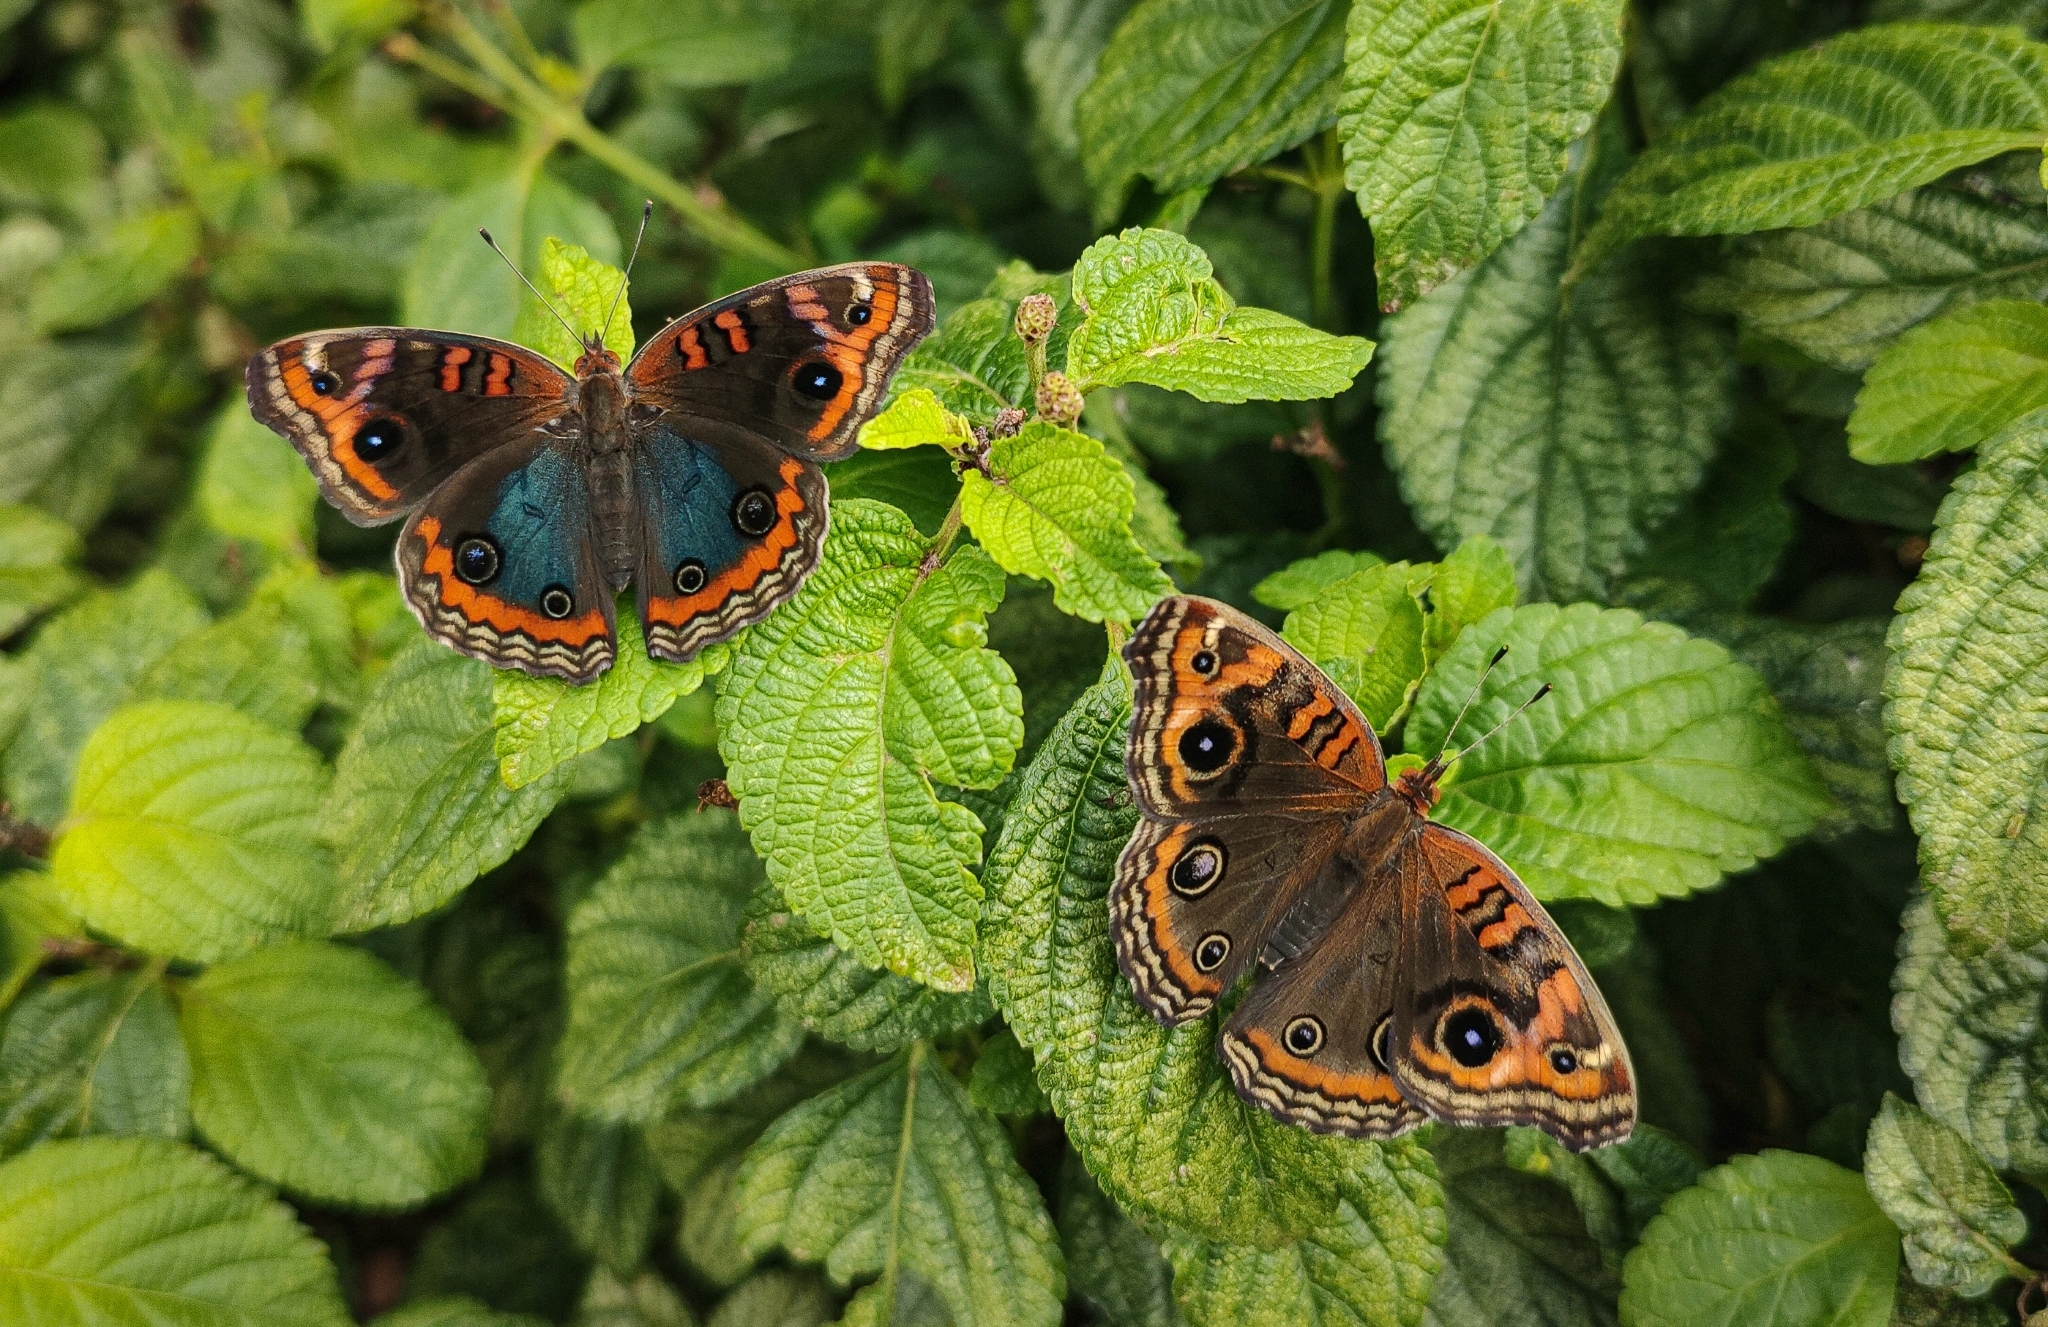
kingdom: Animalia
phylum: Arthropoda
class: Insecta
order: Lepidoptera
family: Nymphalidae
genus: Junonia
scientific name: Junonia evarete
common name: Black mangrove buckeye
